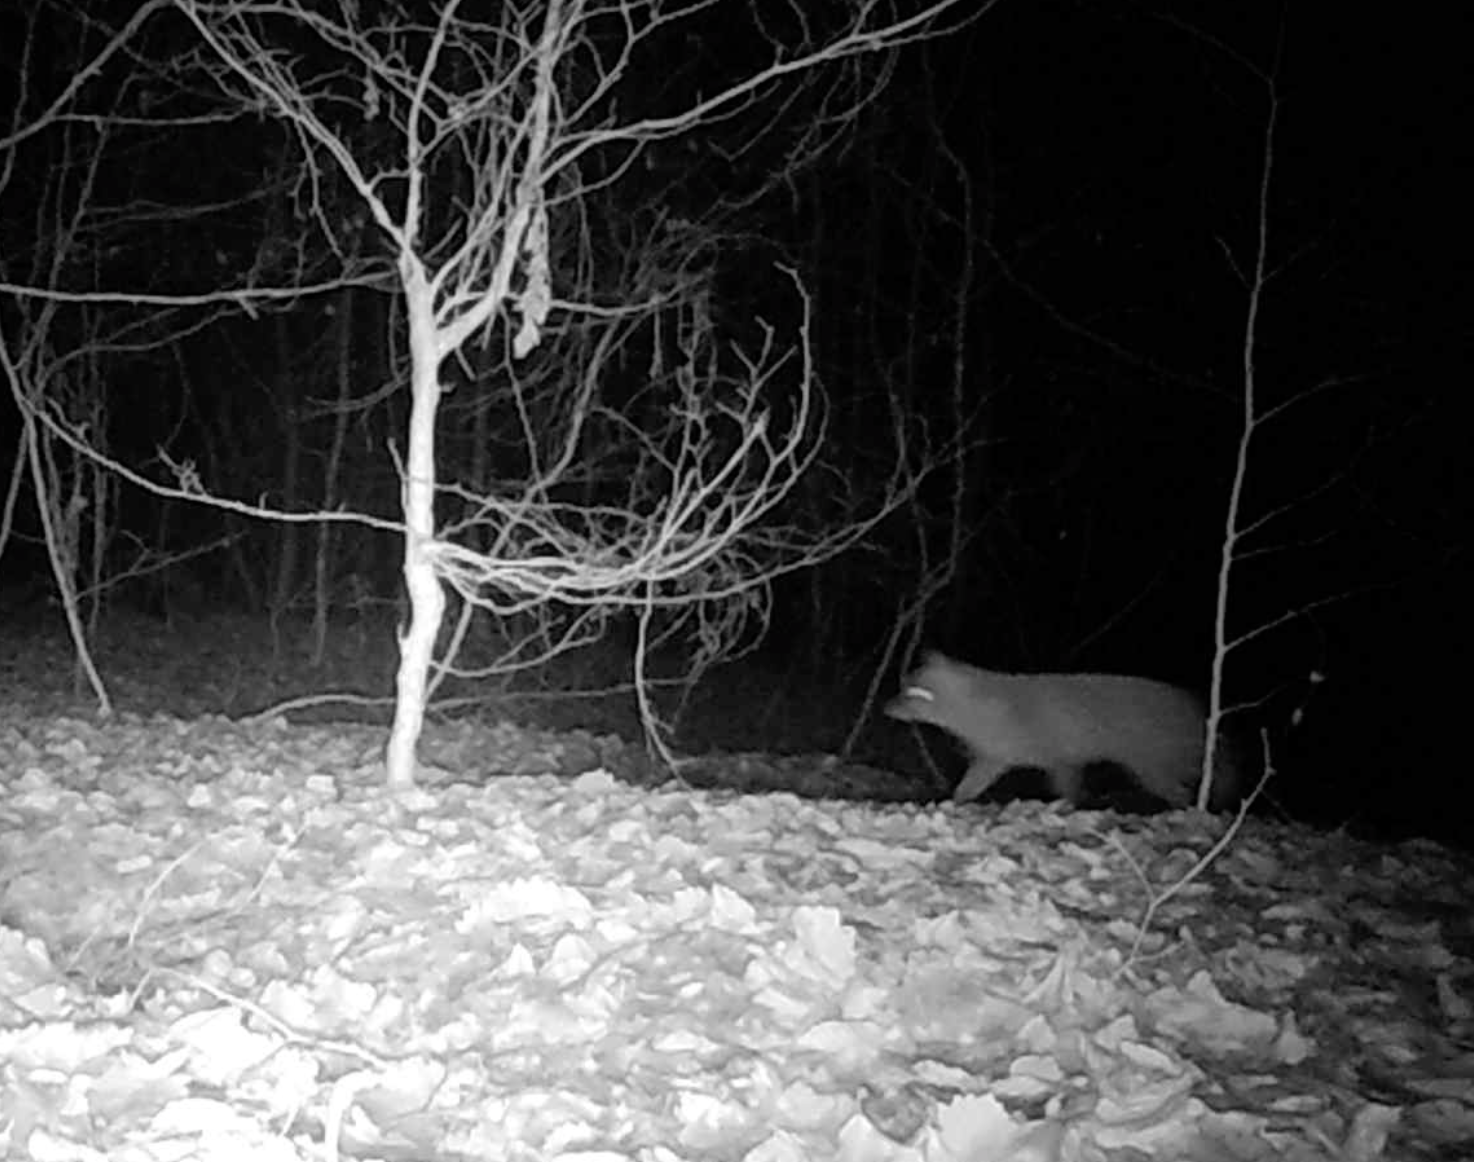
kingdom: Animalia
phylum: Chordata
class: Mammalia
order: Carnivora
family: Canidae
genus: Vulpes
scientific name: Vulpes vulpes
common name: Red fox
